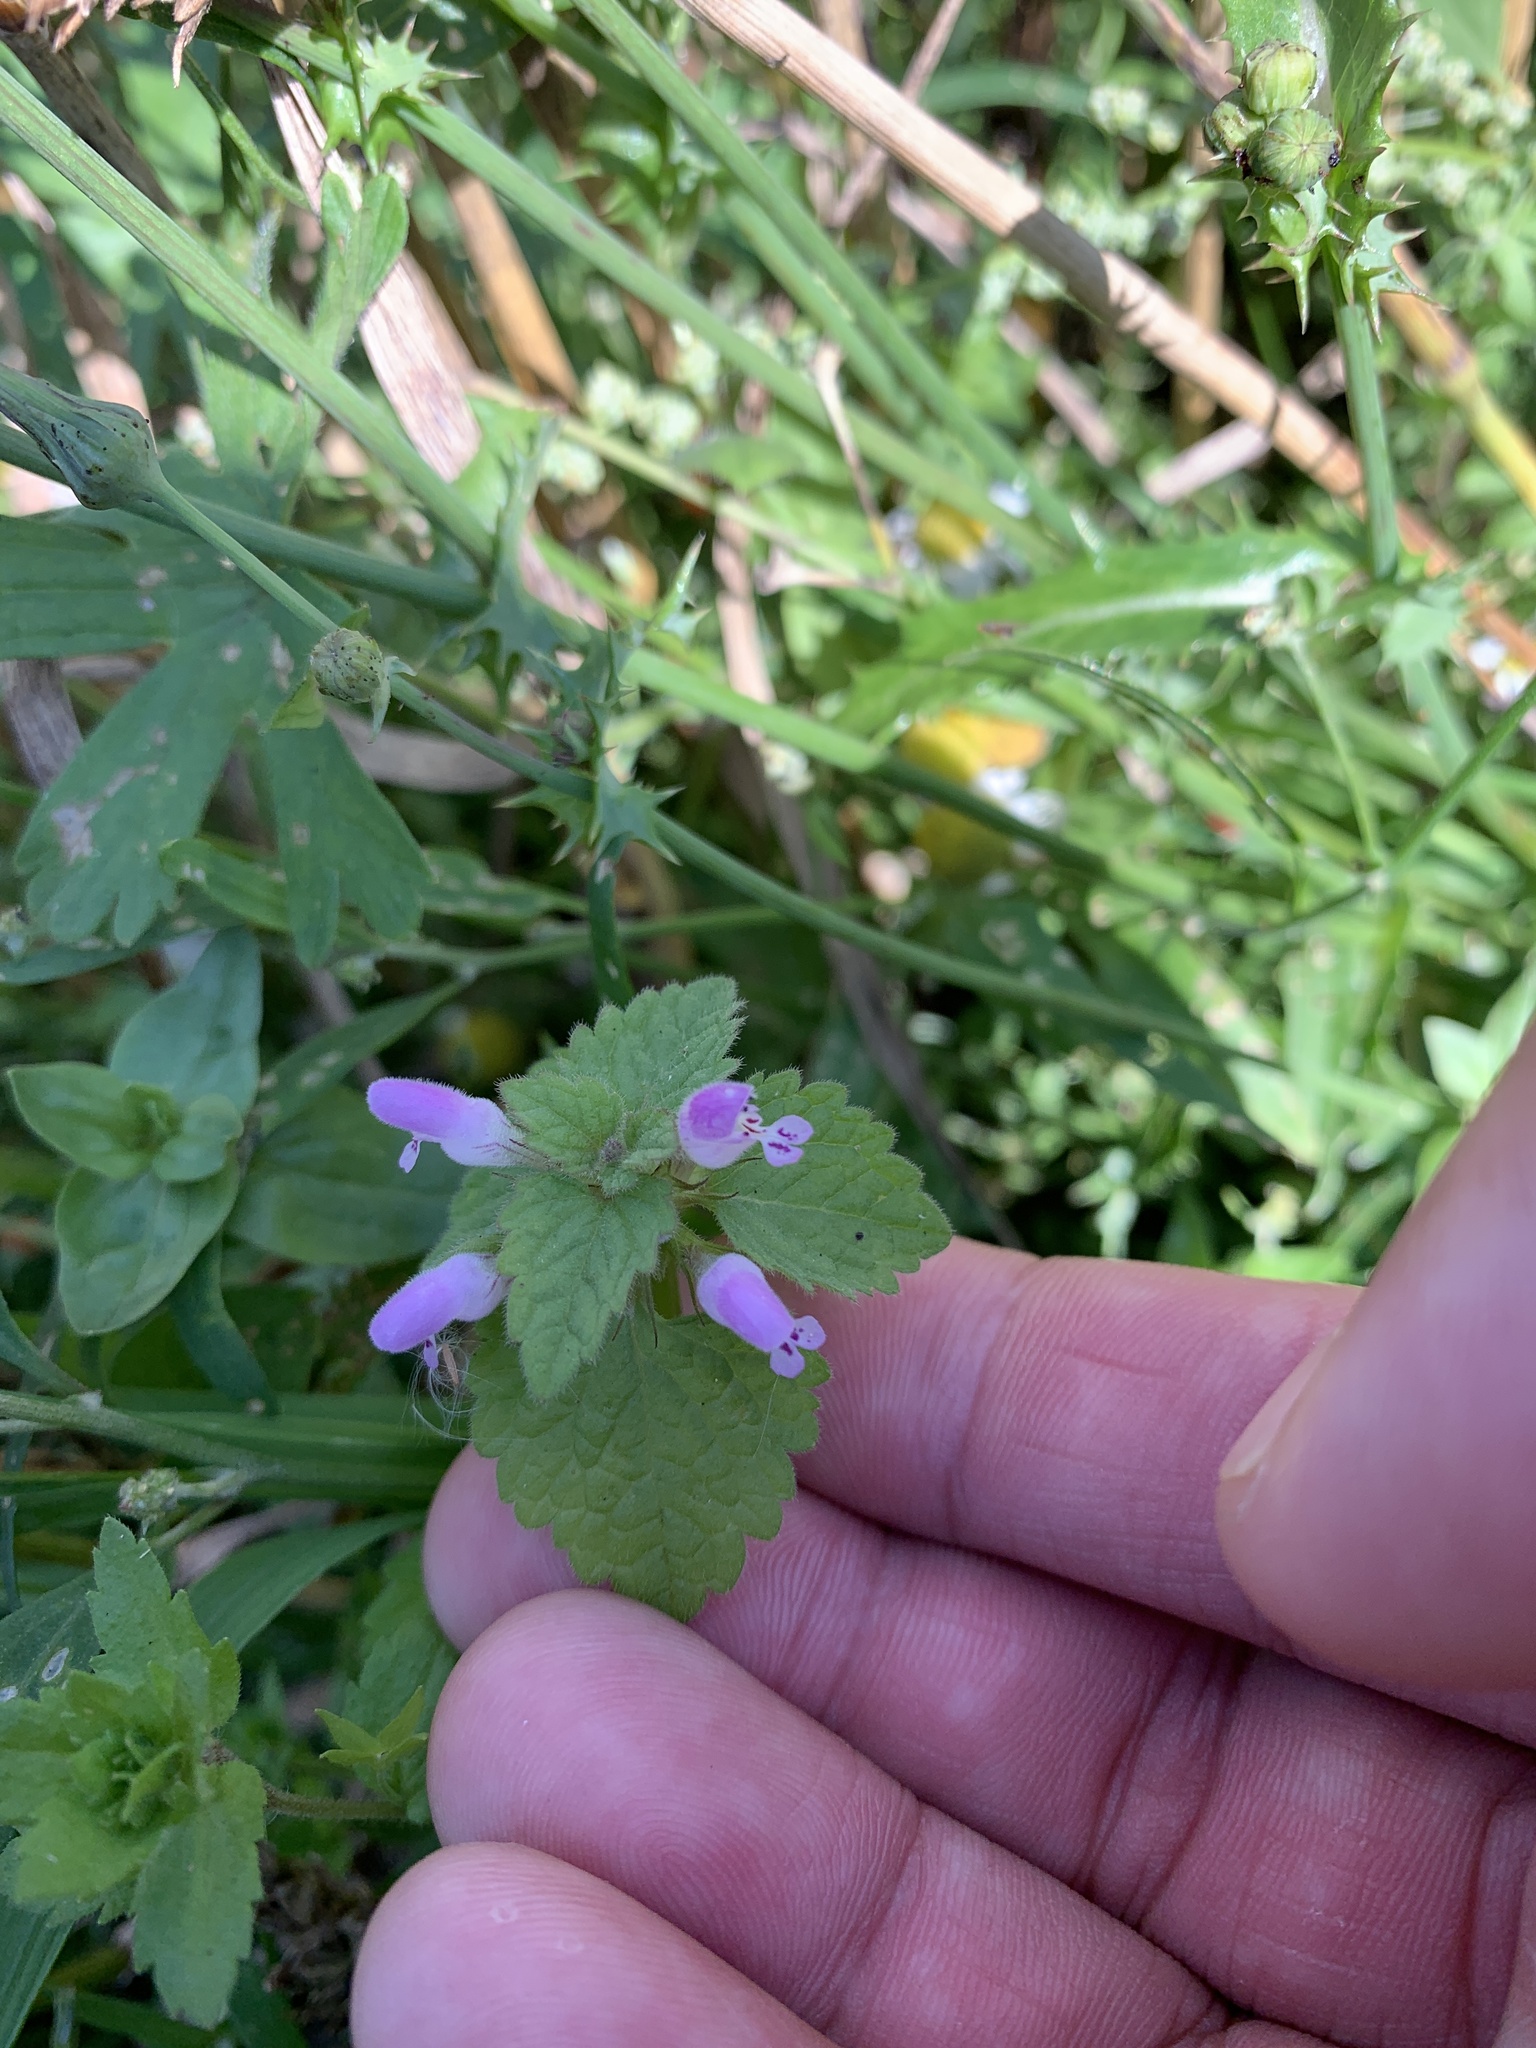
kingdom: Plantae
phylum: Tracheophyta
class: Magnoliopsida
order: Lamiales
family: Lamiaceae
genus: Lamium
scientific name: Lamium purpureum
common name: Red dead-nettle
